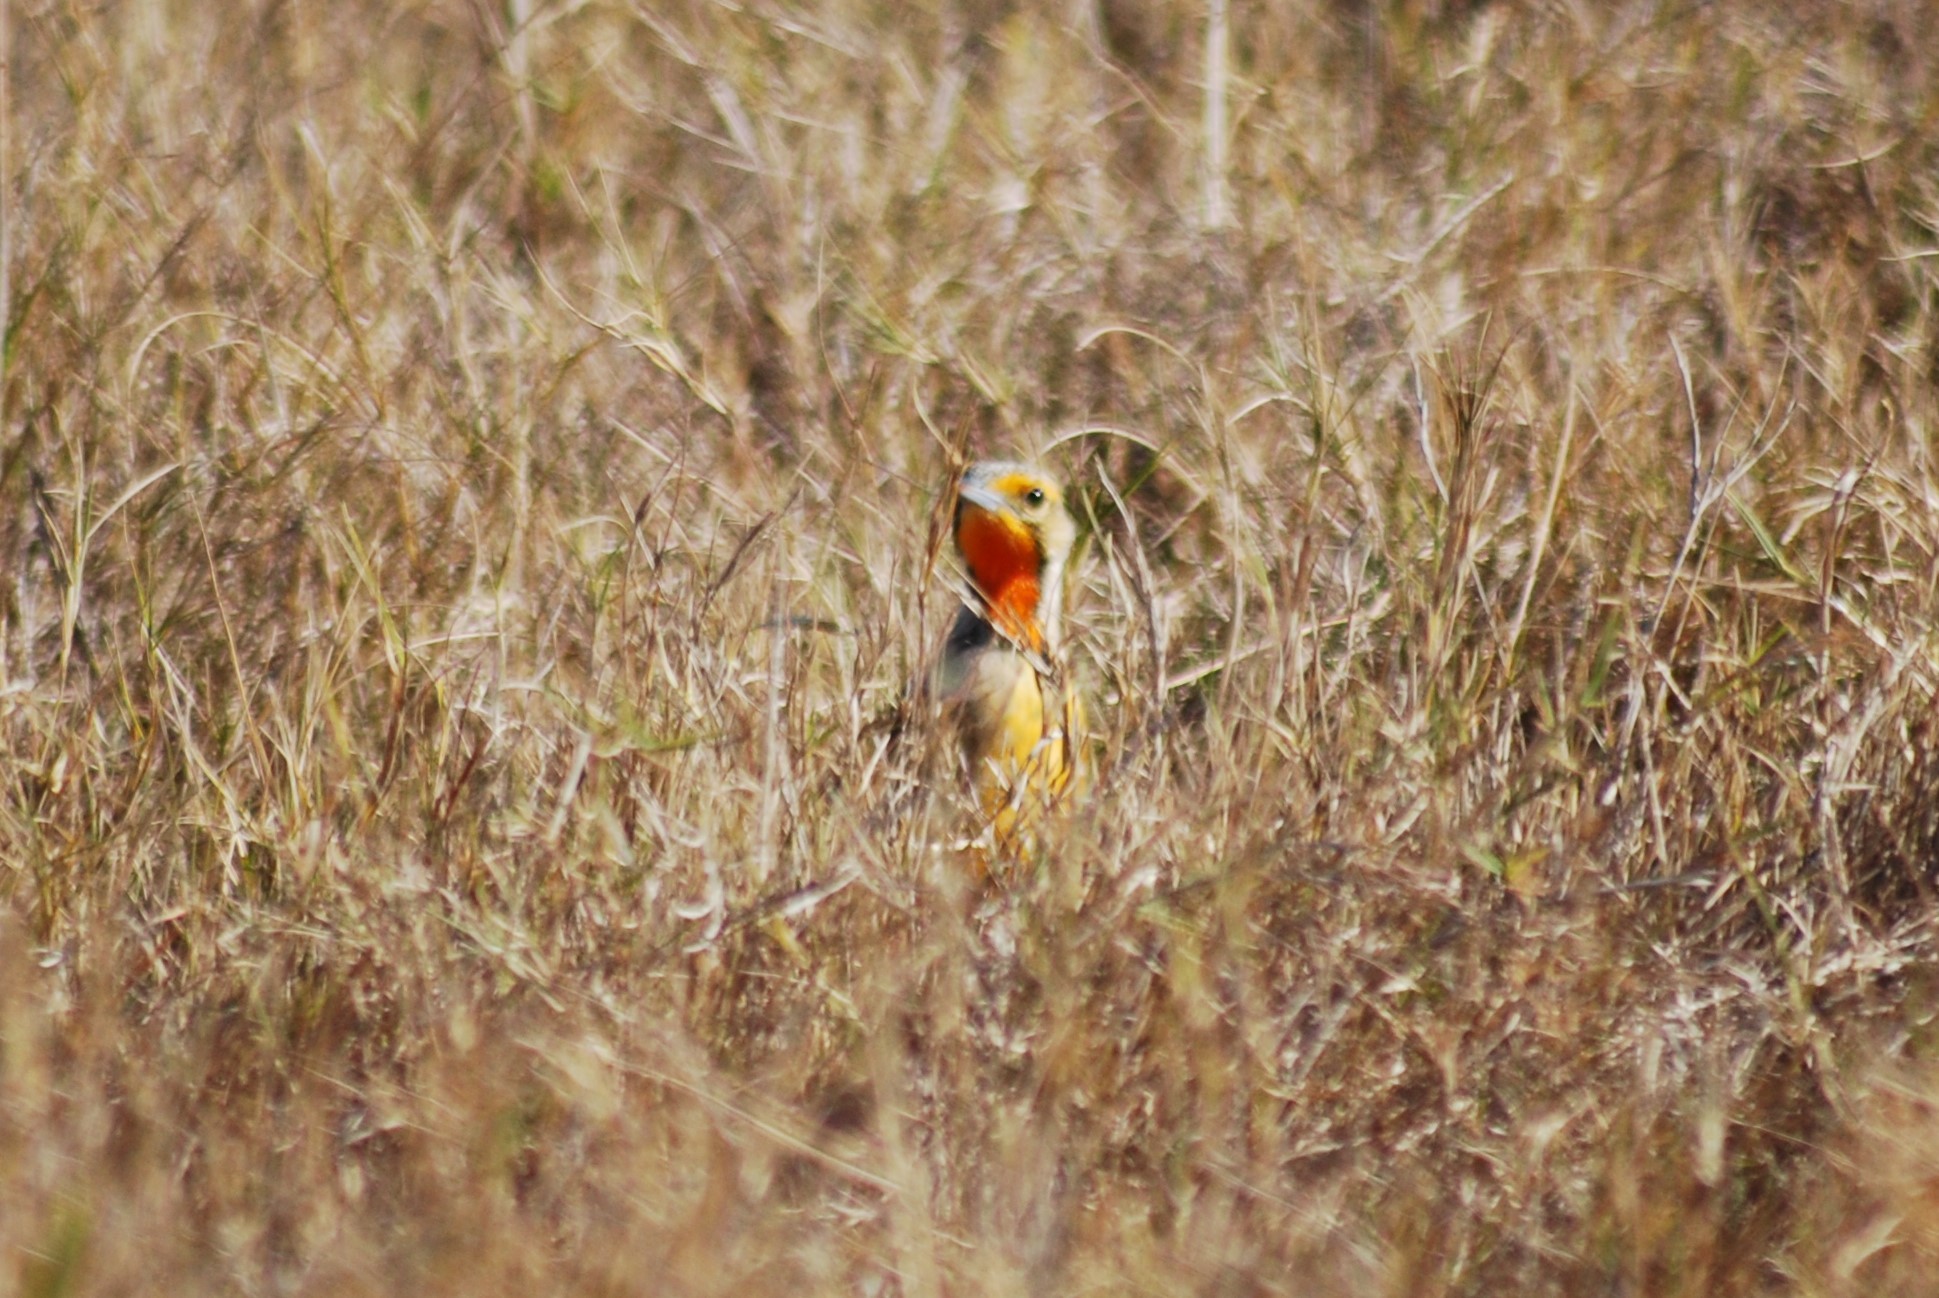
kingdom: Animalia
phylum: Chordata
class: Aves
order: Passeriformes
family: Motacillidae
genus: Macronyx
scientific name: Macronyx capensis
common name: Cape longclaw
